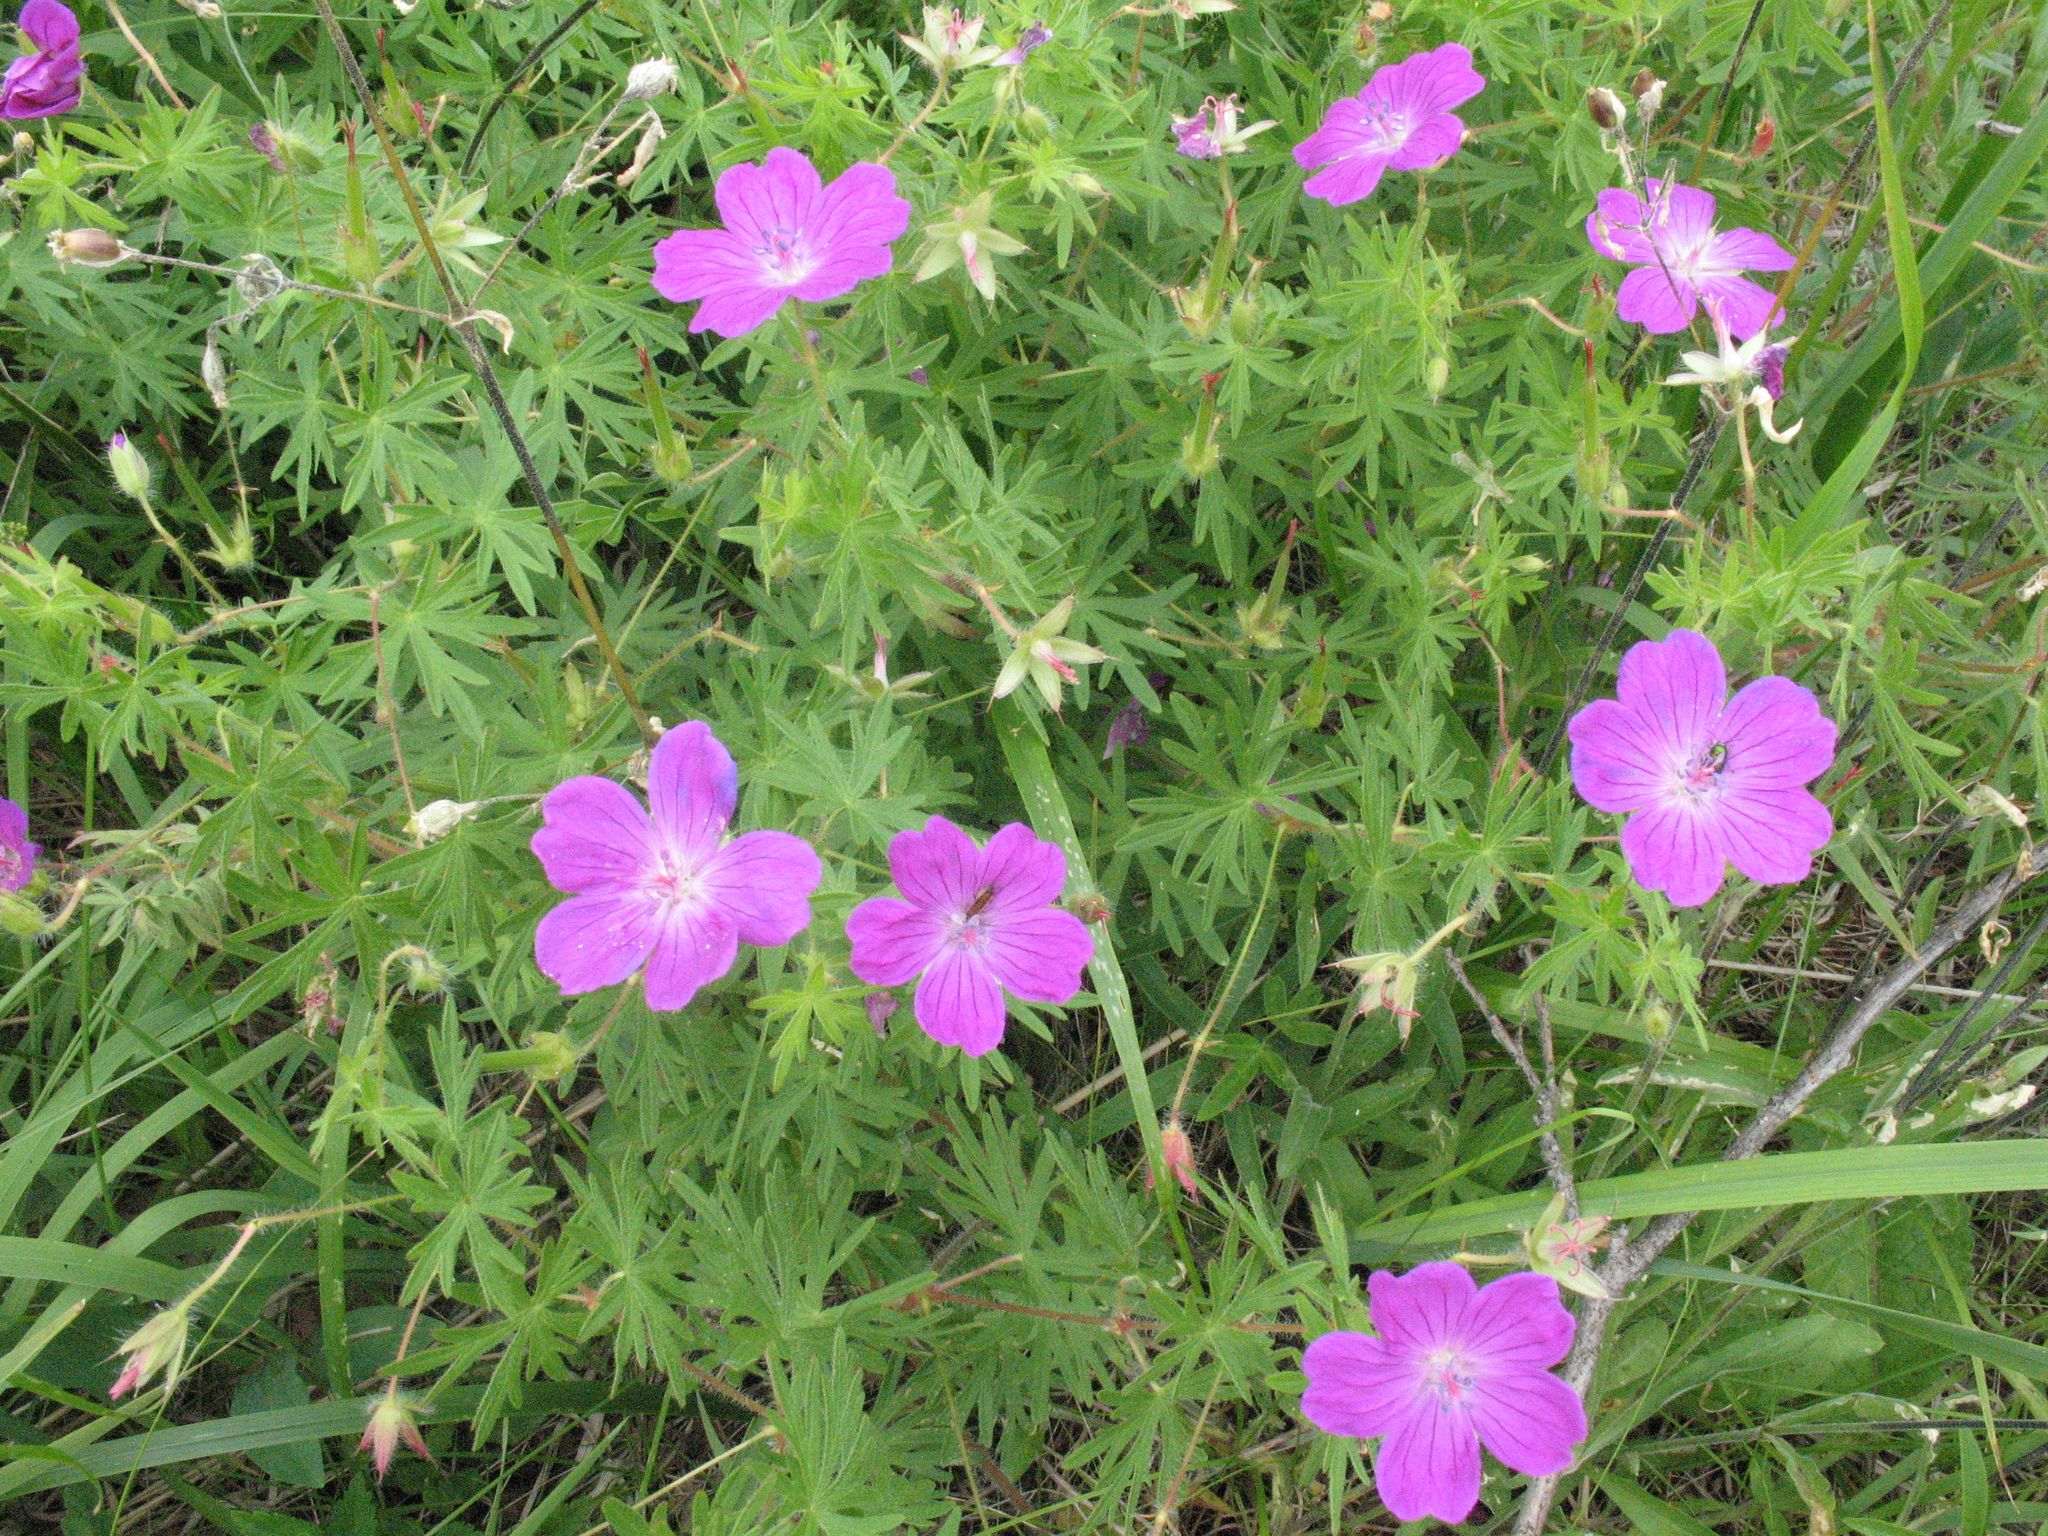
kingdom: Plantae
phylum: Tracheophyta
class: Magnoliopsida
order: Geraniales
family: Geraniaceae
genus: Geranium
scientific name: Geranium sanguineum
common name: Bloody crane's-bill
